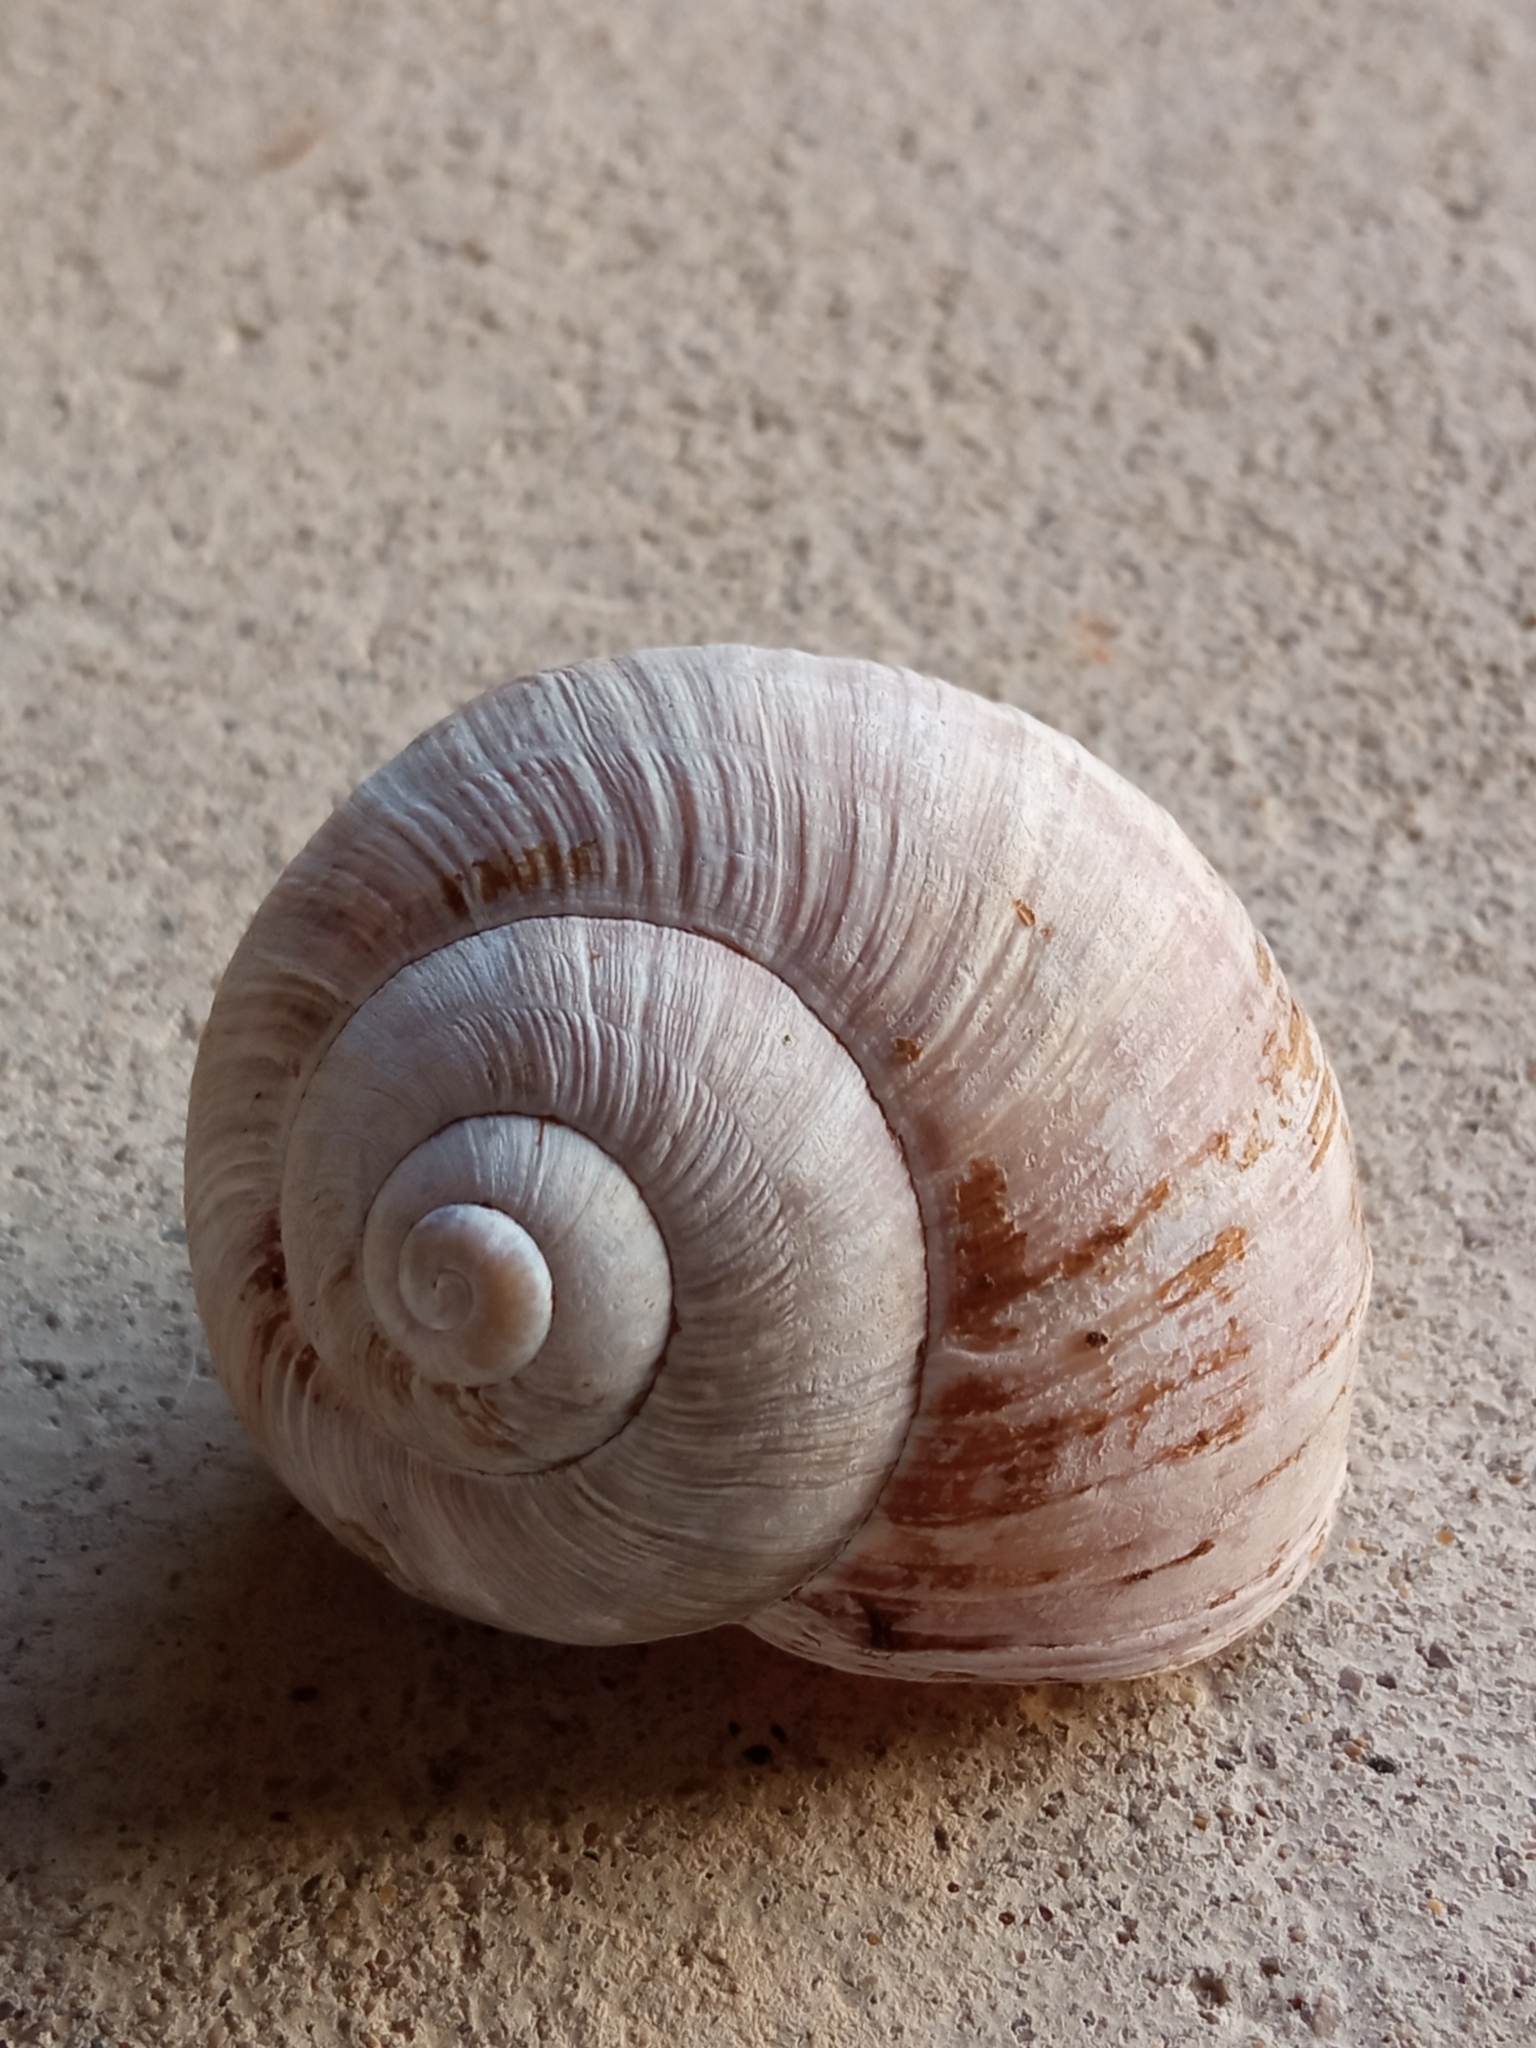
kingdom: Animalia
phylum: Mollusca
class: Gastropoda
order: Stylommatophora
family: Helicidae
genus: Helix
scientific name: Helix pomatia
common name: Roman snail
